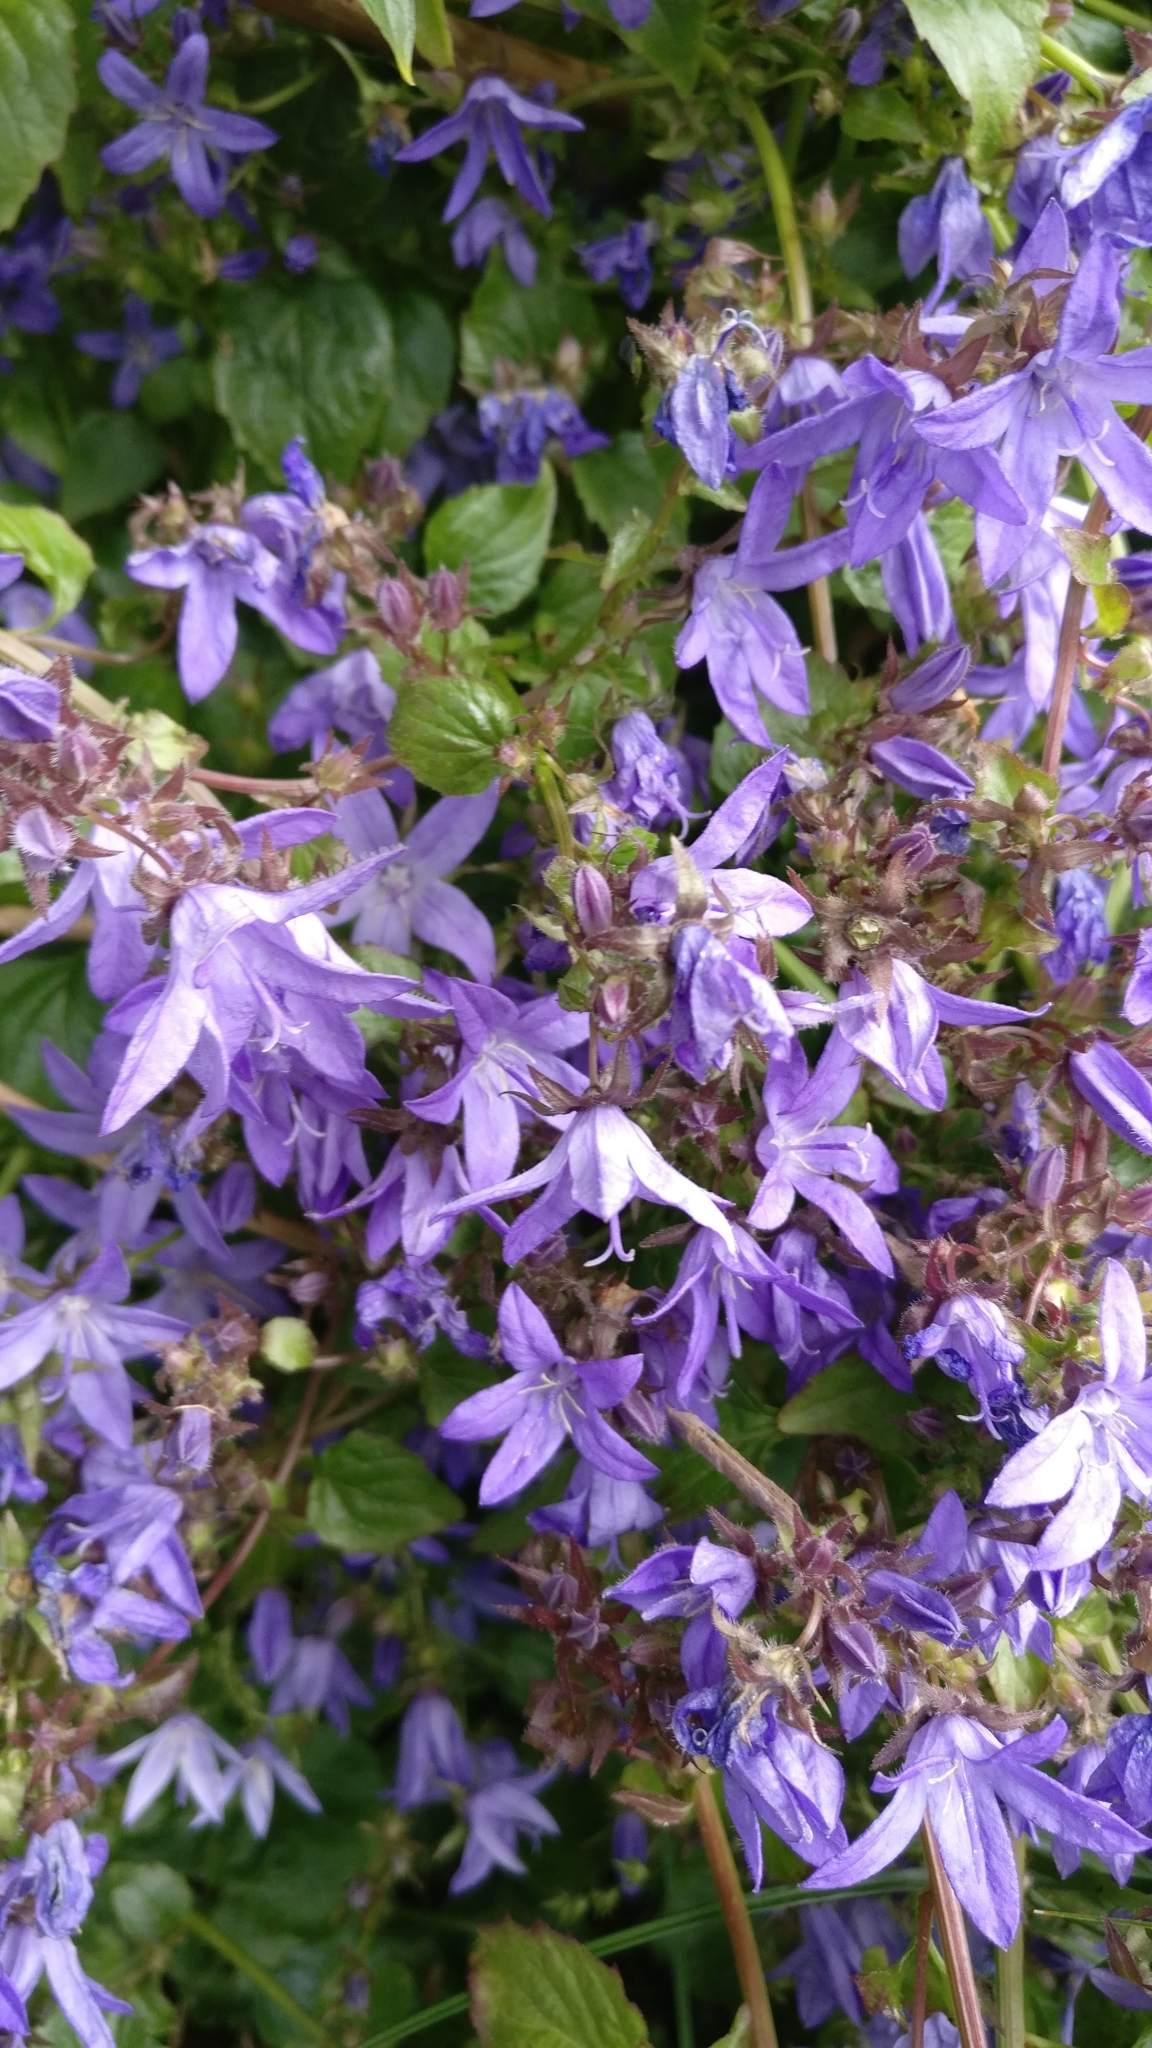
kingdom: Plantae
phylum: Tracheophyta
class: Magnoliopsida
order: Asterales
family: Campanulaceae
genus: Campanula
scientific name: Campanula poscharskyana
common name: Trailing bellflower
